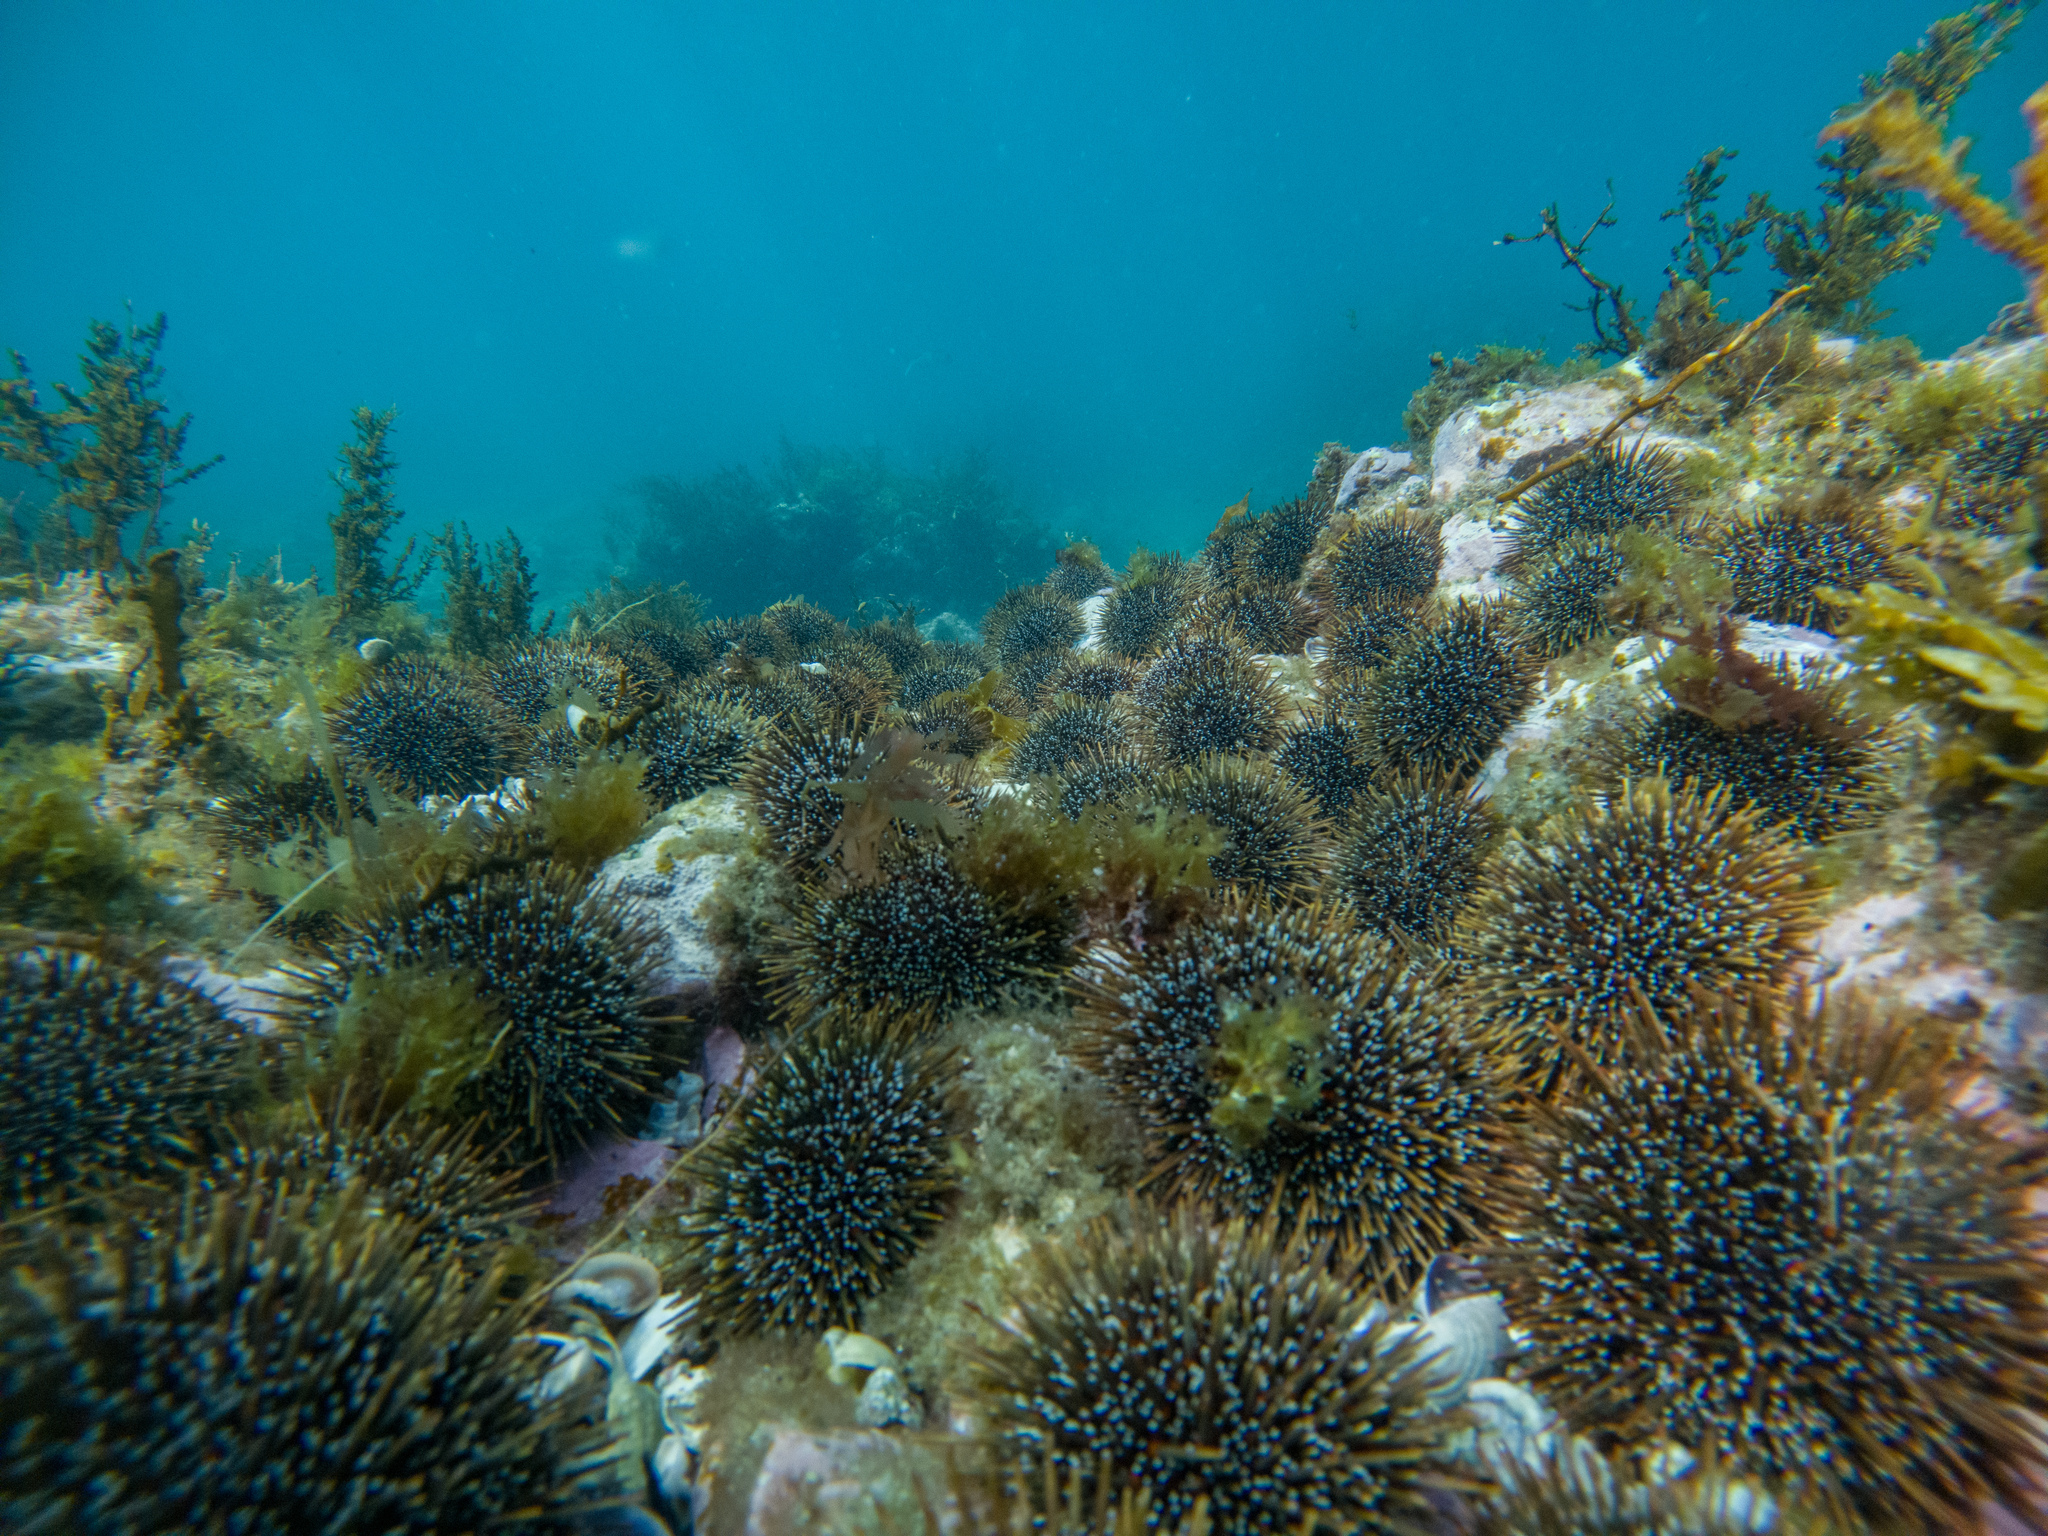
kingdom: Animalia
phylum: Echinodermata
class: Echinoidea
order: Camarodonta
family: Echinometridae
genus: Evechinus
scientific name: Evechinus chloroticus
